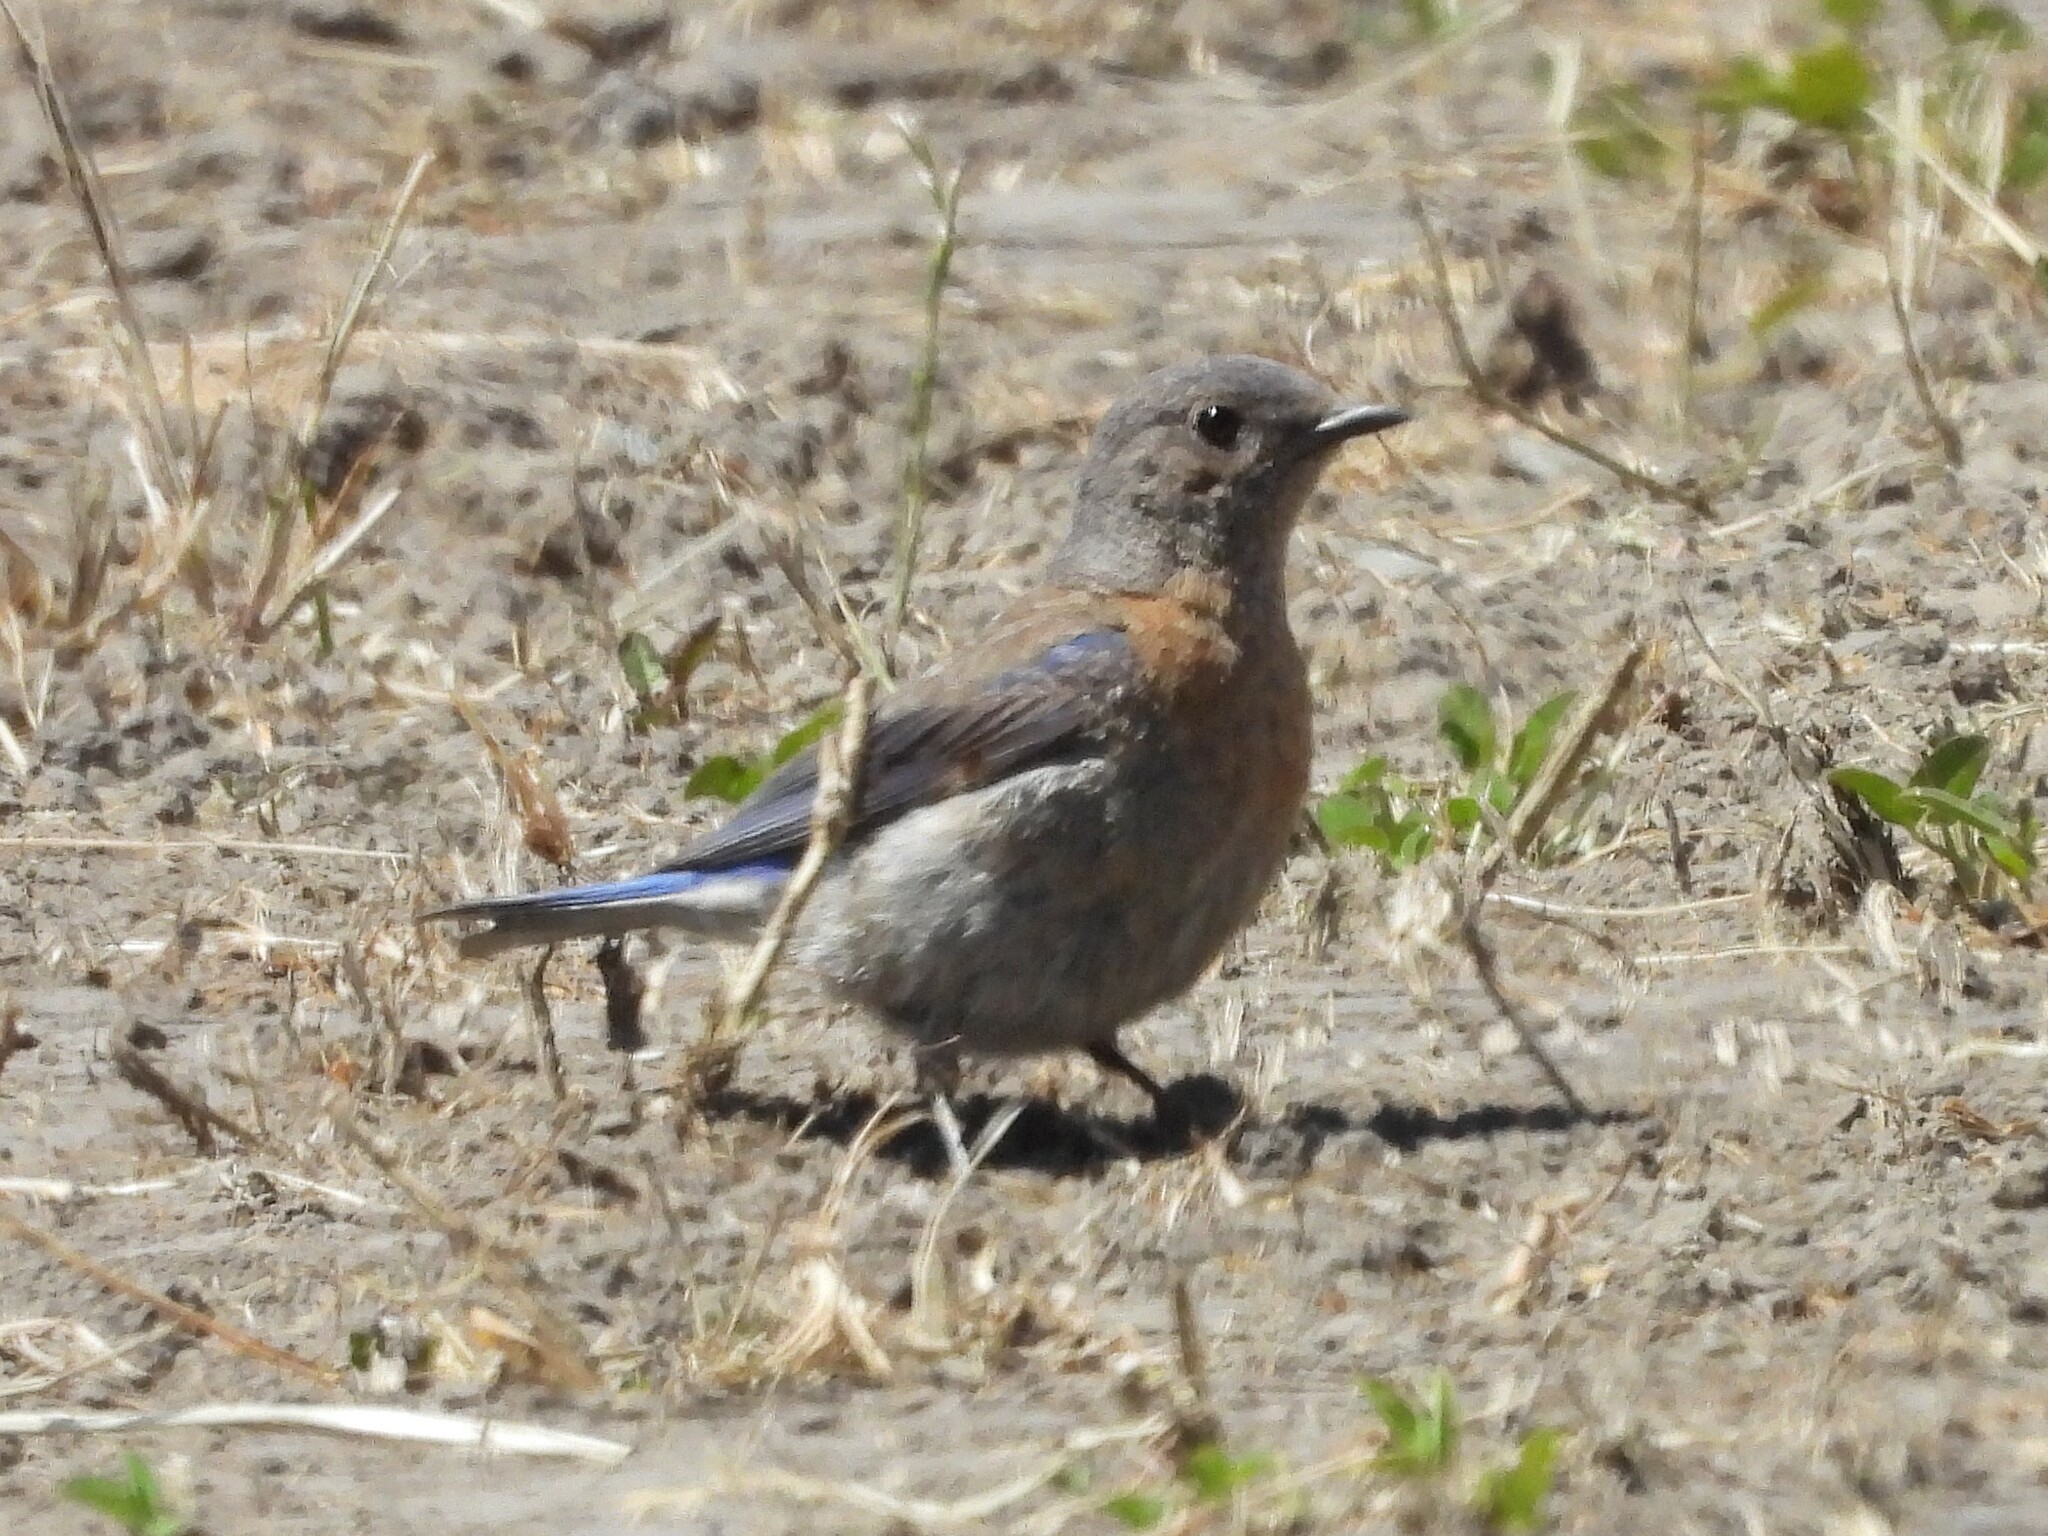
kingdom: Animalia
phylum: Chordata
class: Aves
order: Passeriformes
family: Turdidae
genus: Sialia
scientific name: Sialia mexicana
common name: Western bluebird
